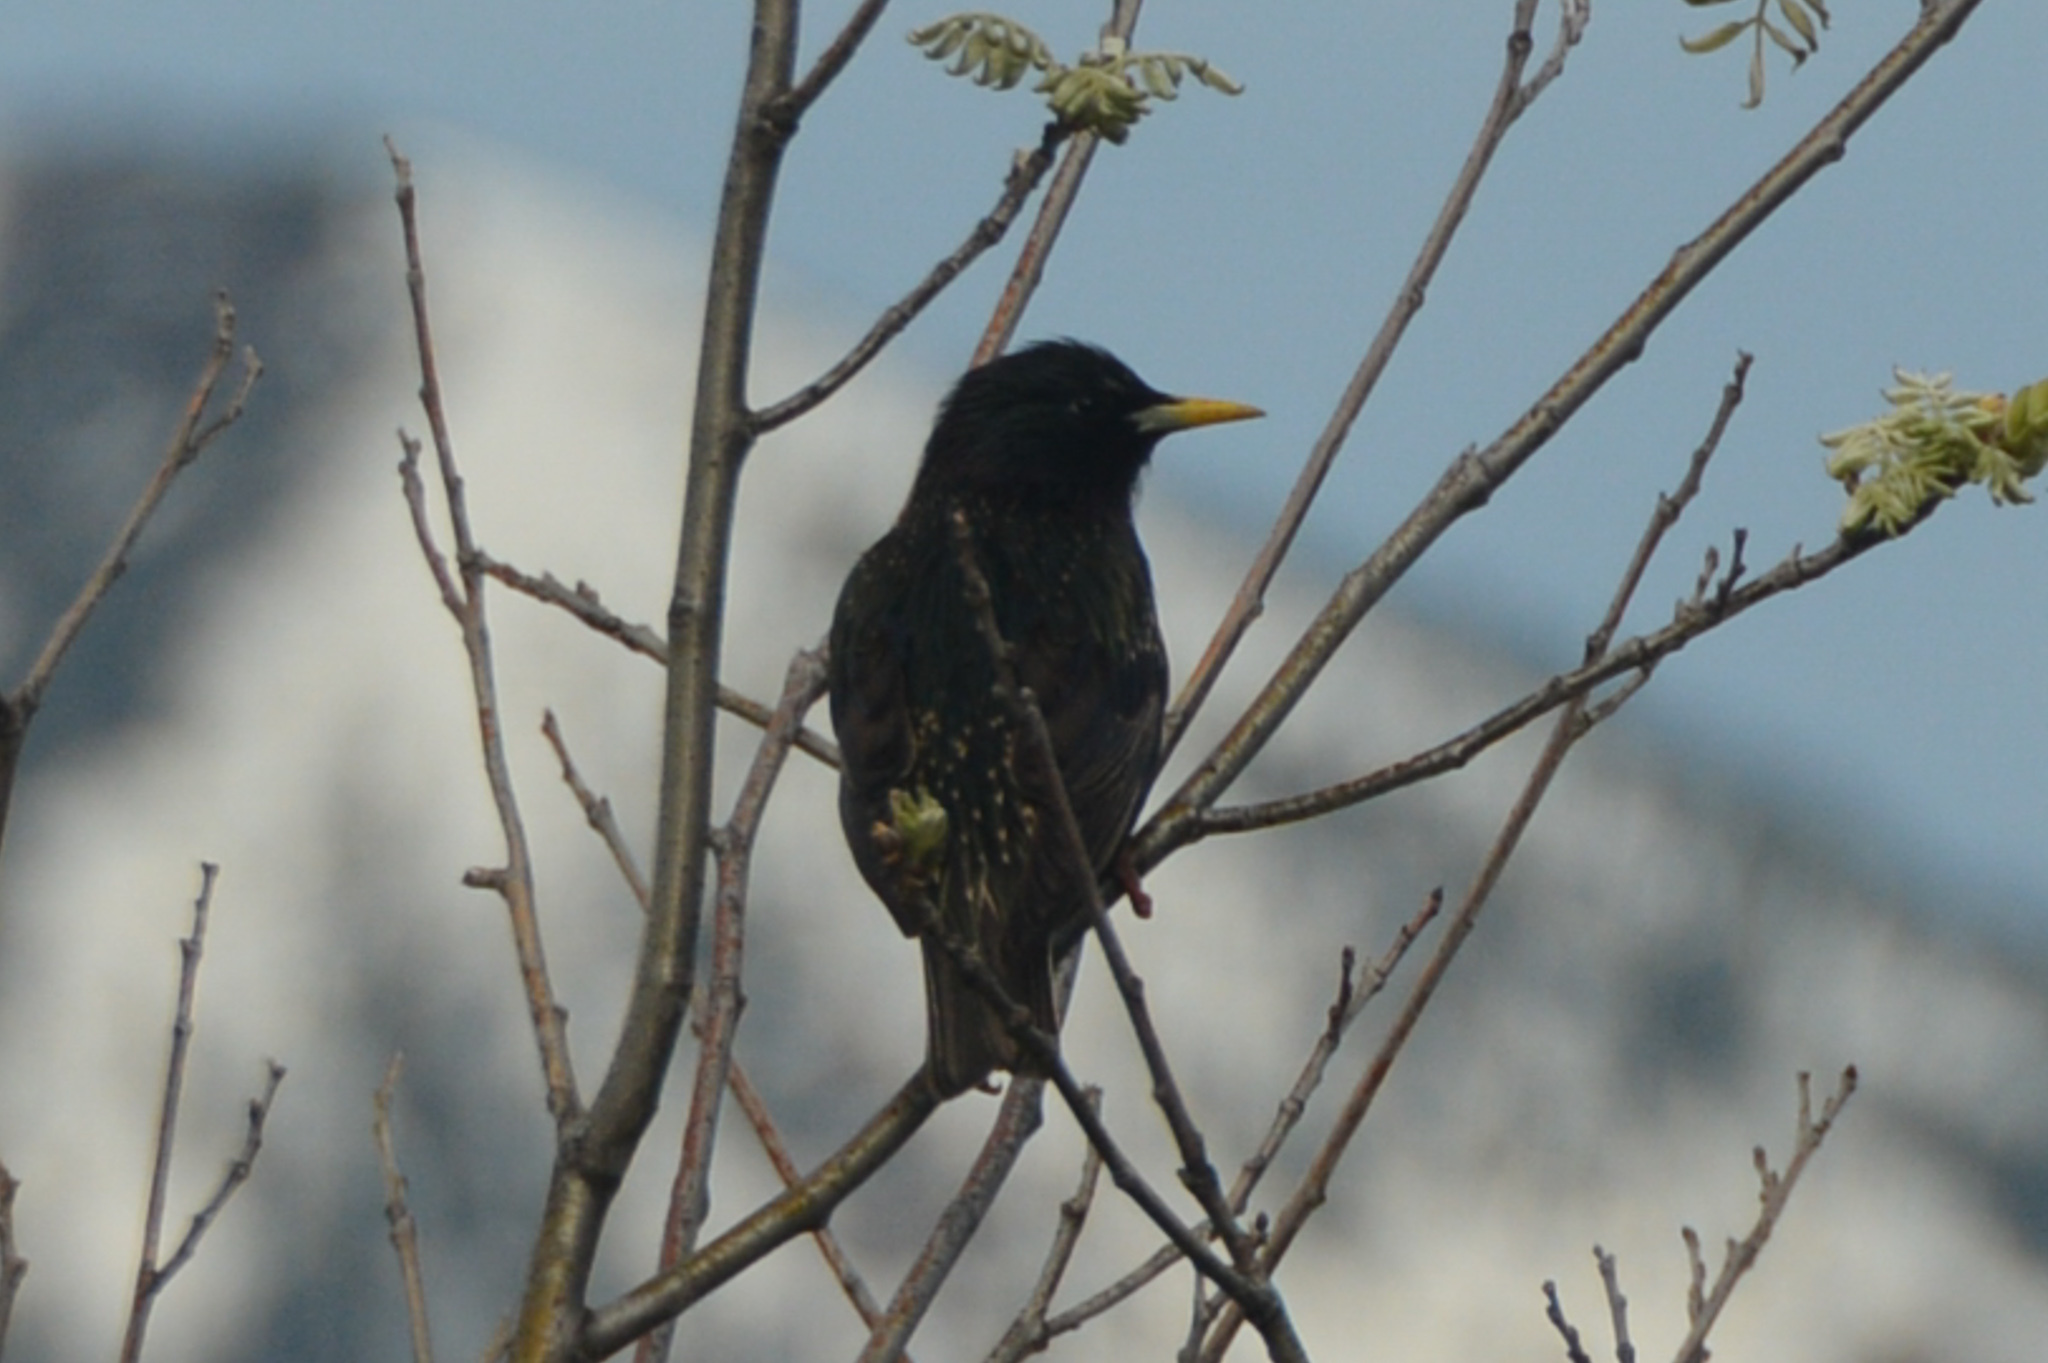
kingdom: Animalia
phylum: Chordata
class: Aves
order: Passeriformes
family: Sturnidae
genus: Sturnus
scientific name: Sturnus vulgaris
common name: Common starling
